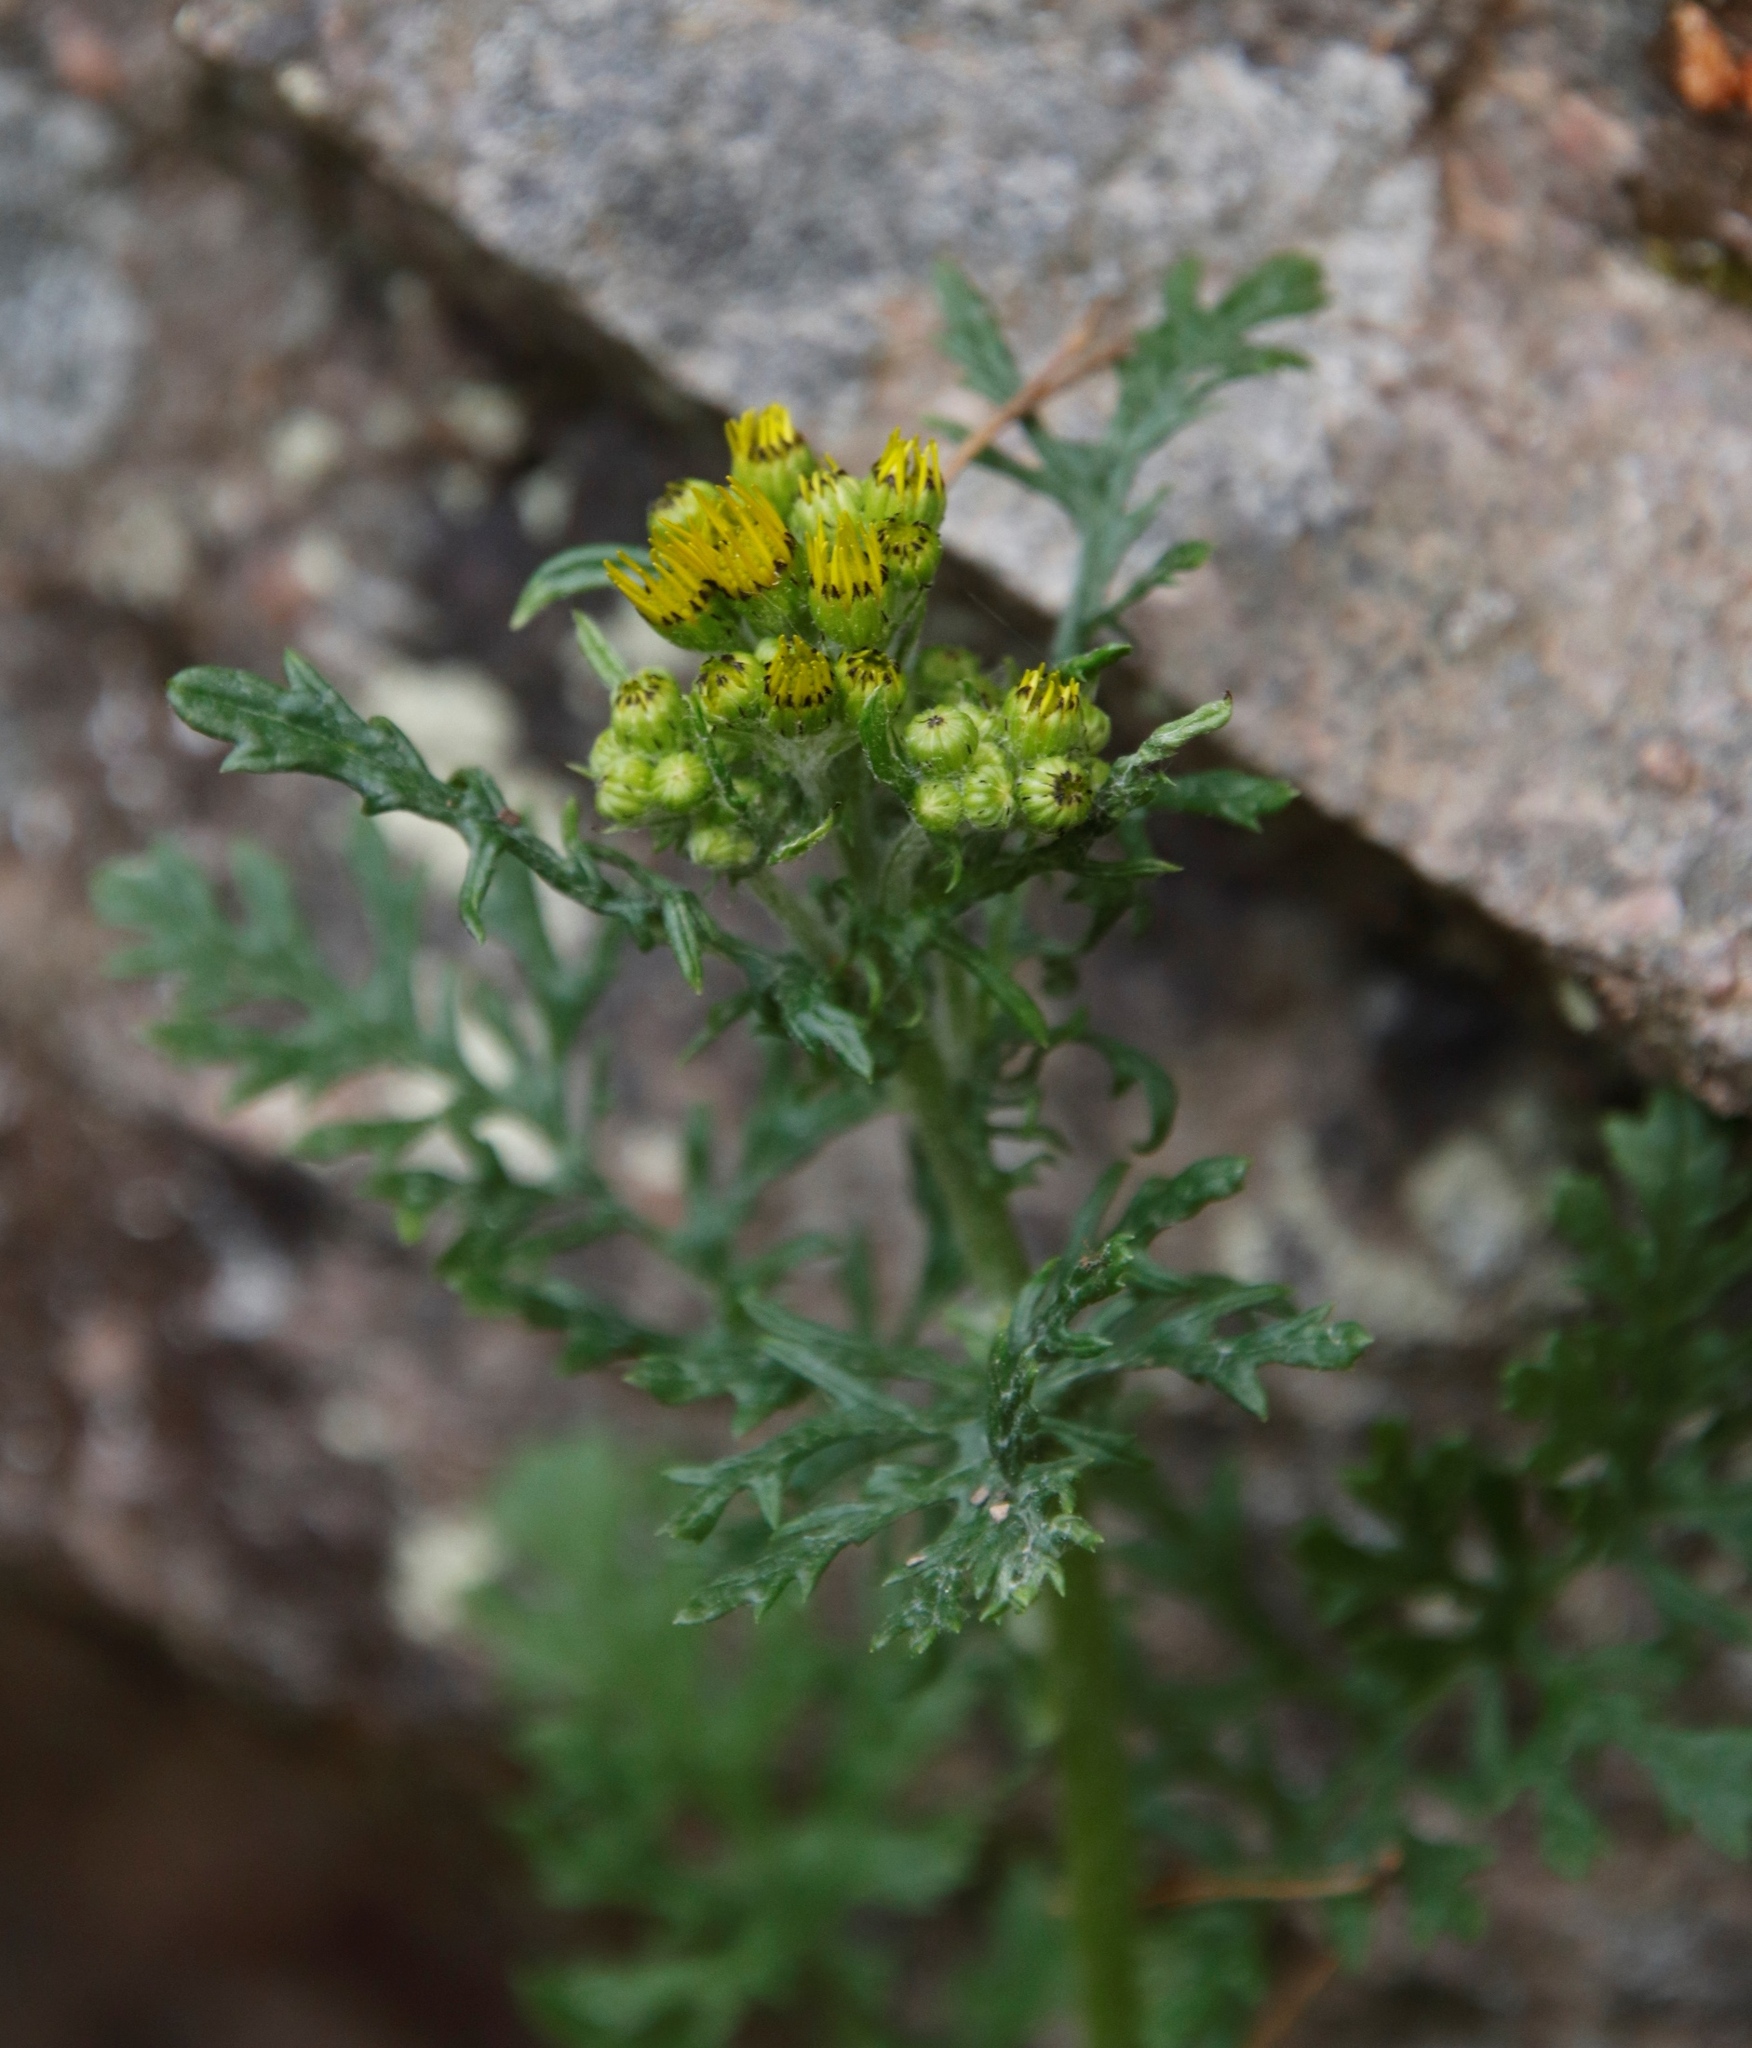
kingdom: Plantae
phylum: Tracheophyta
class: Magnoliopsida
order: Asterales
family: Asteraceae
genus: Jacobaea
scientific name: Jacobaea vulgaris
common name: Stinking willie
